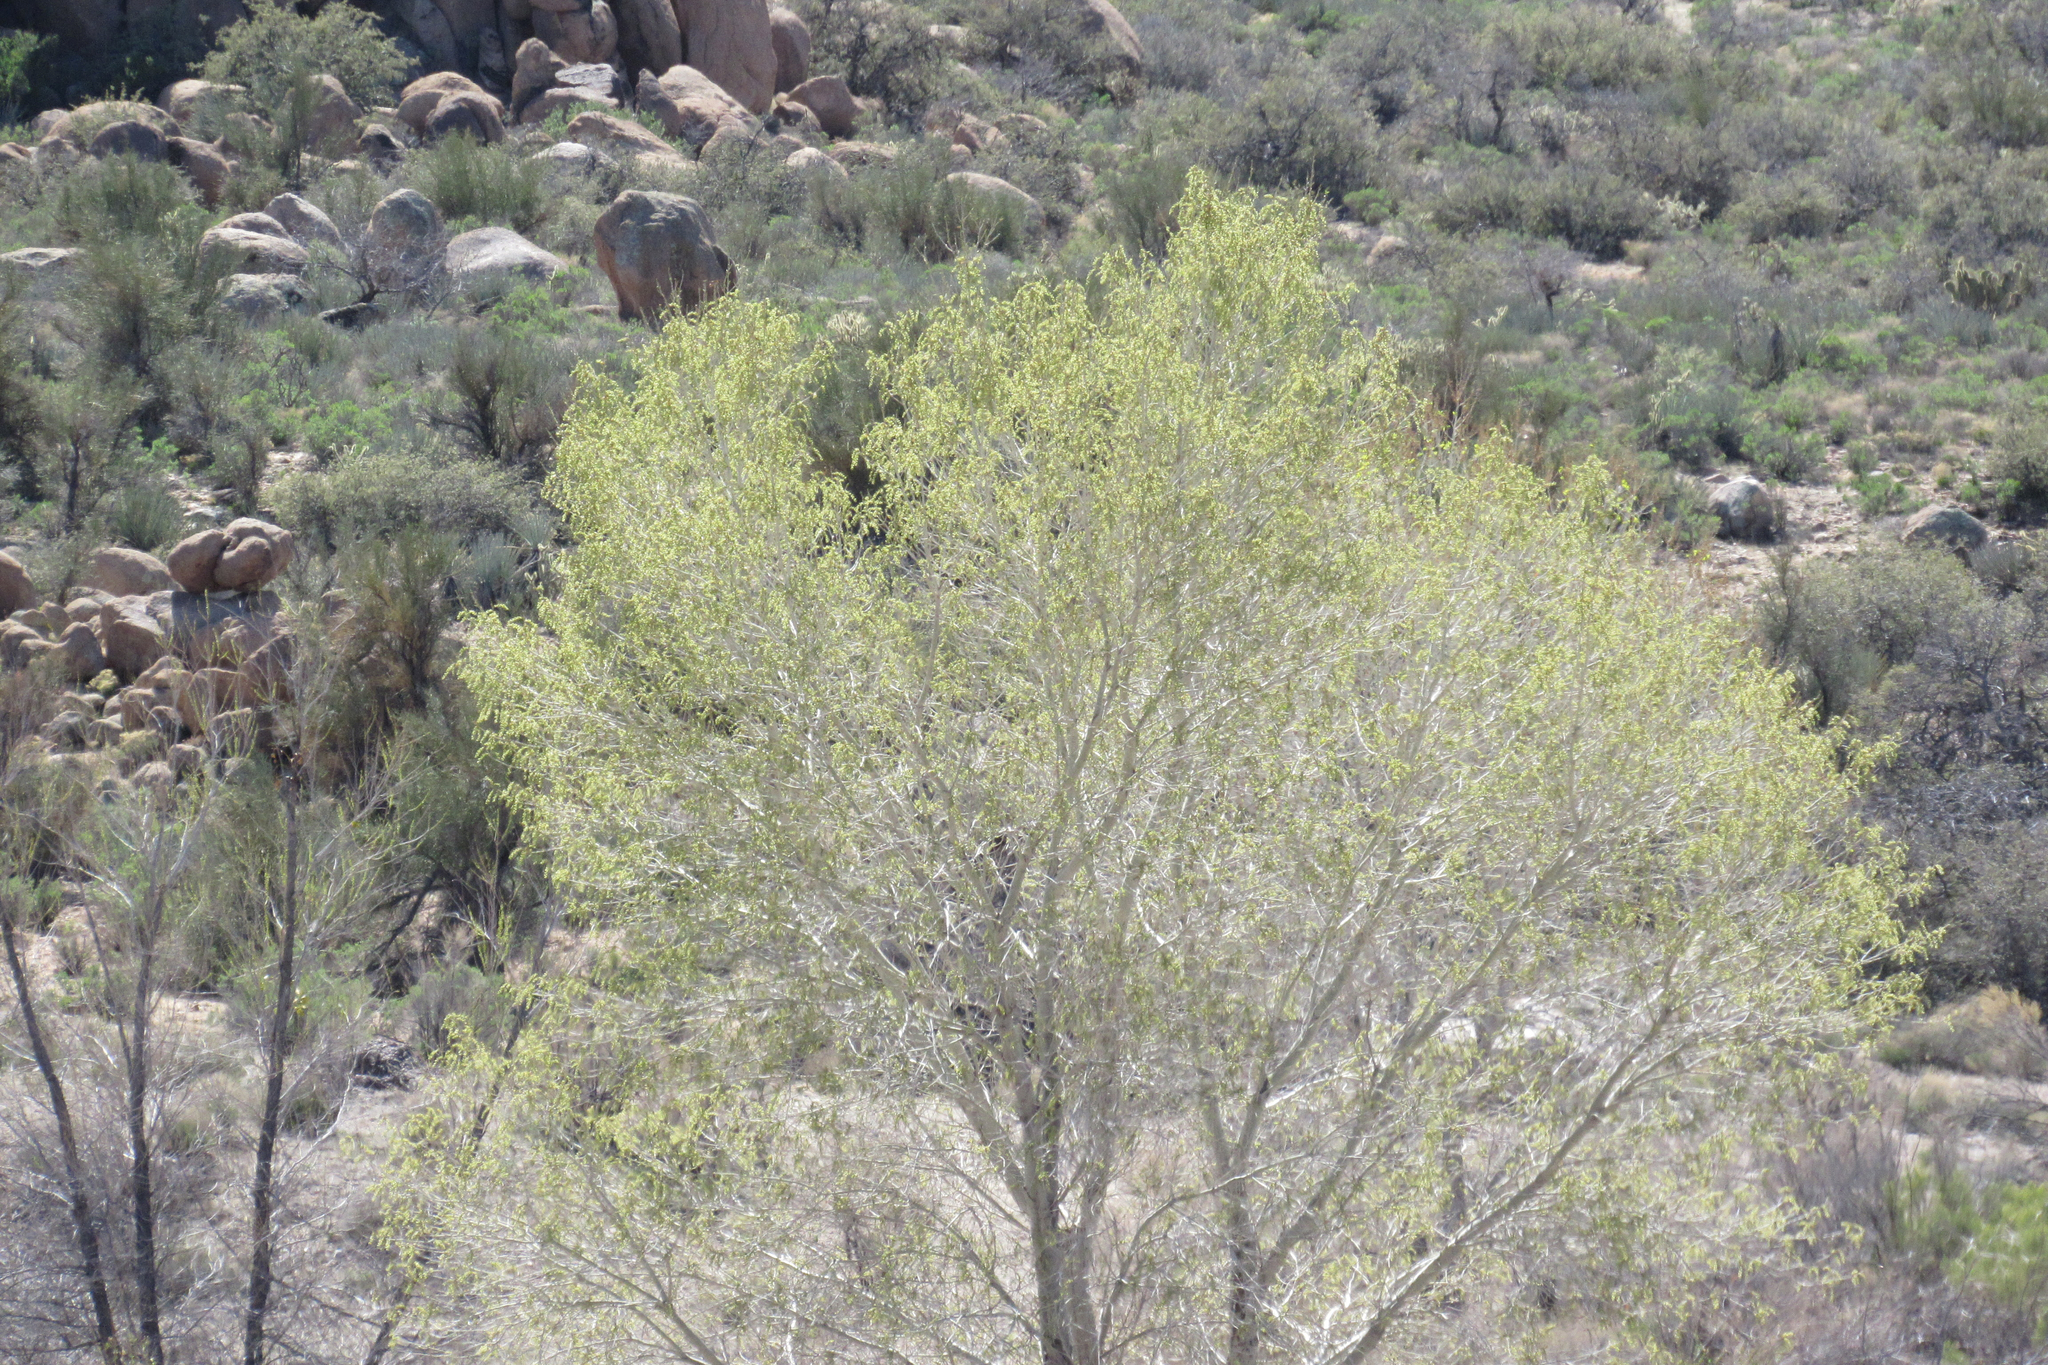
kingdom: Plantae
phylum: Tracheophyta
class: Magnoliopsida
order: Malpighiales
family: Salicaceae
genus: Populus
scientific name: Populus fremontii
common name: Fremont's cottonwood
